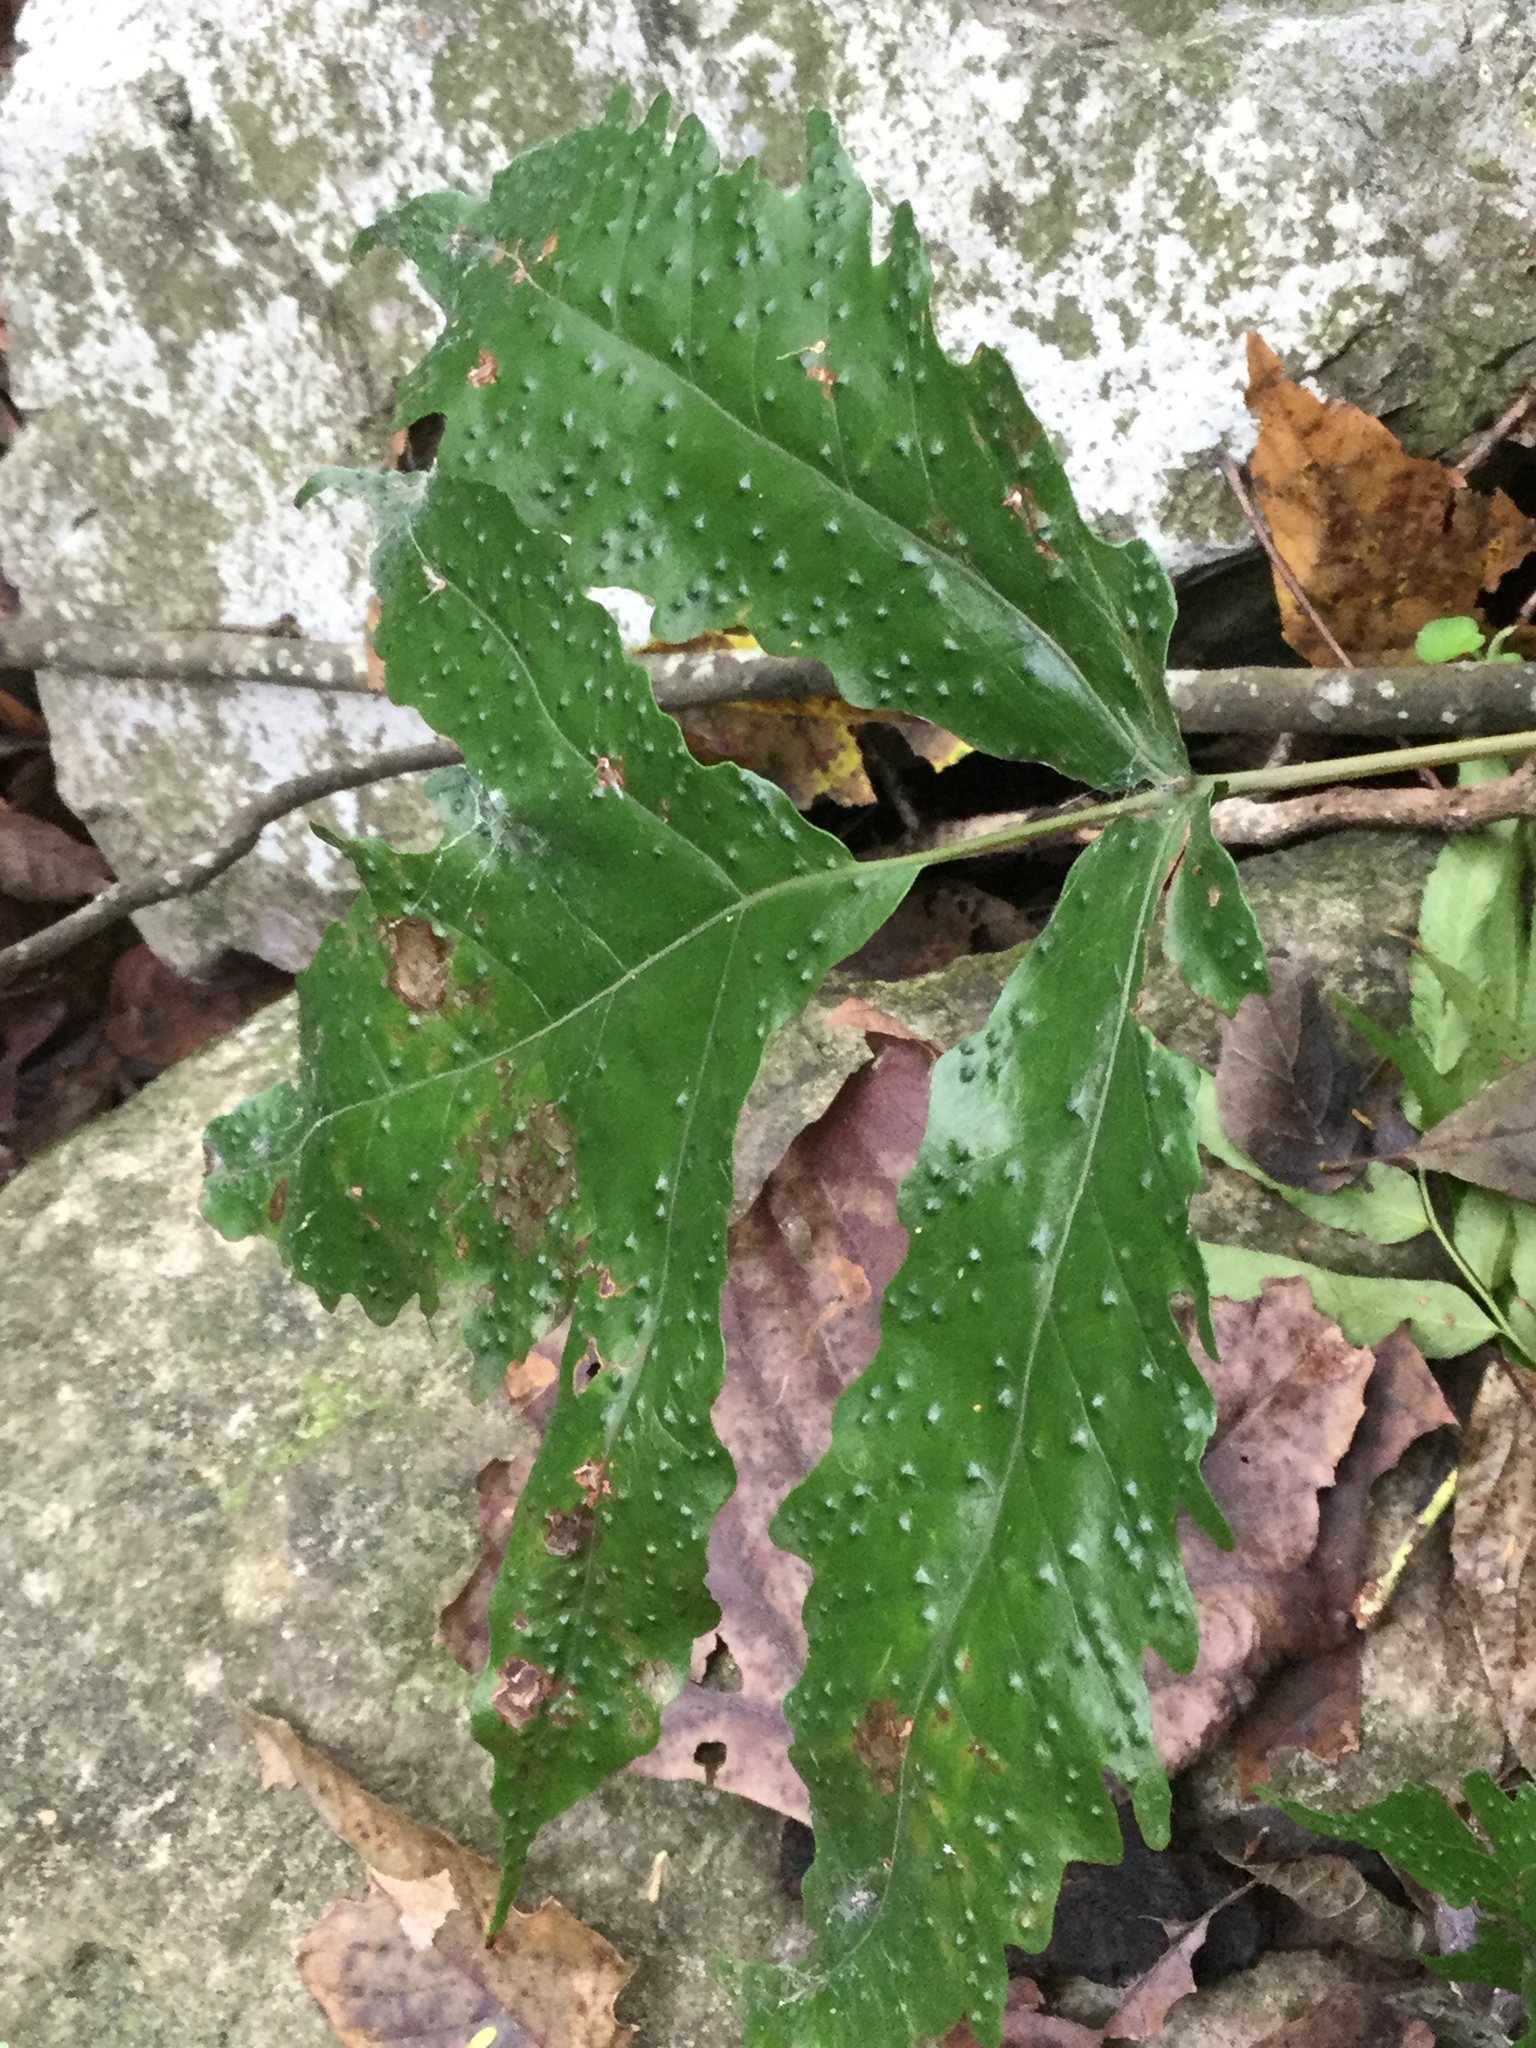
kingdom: Plantae
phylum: Tracheophyta
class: Polypodiopsida
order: Polypodiales
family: Tectariaceae
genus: Tectaria
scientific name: Tectaria heracleifolia
